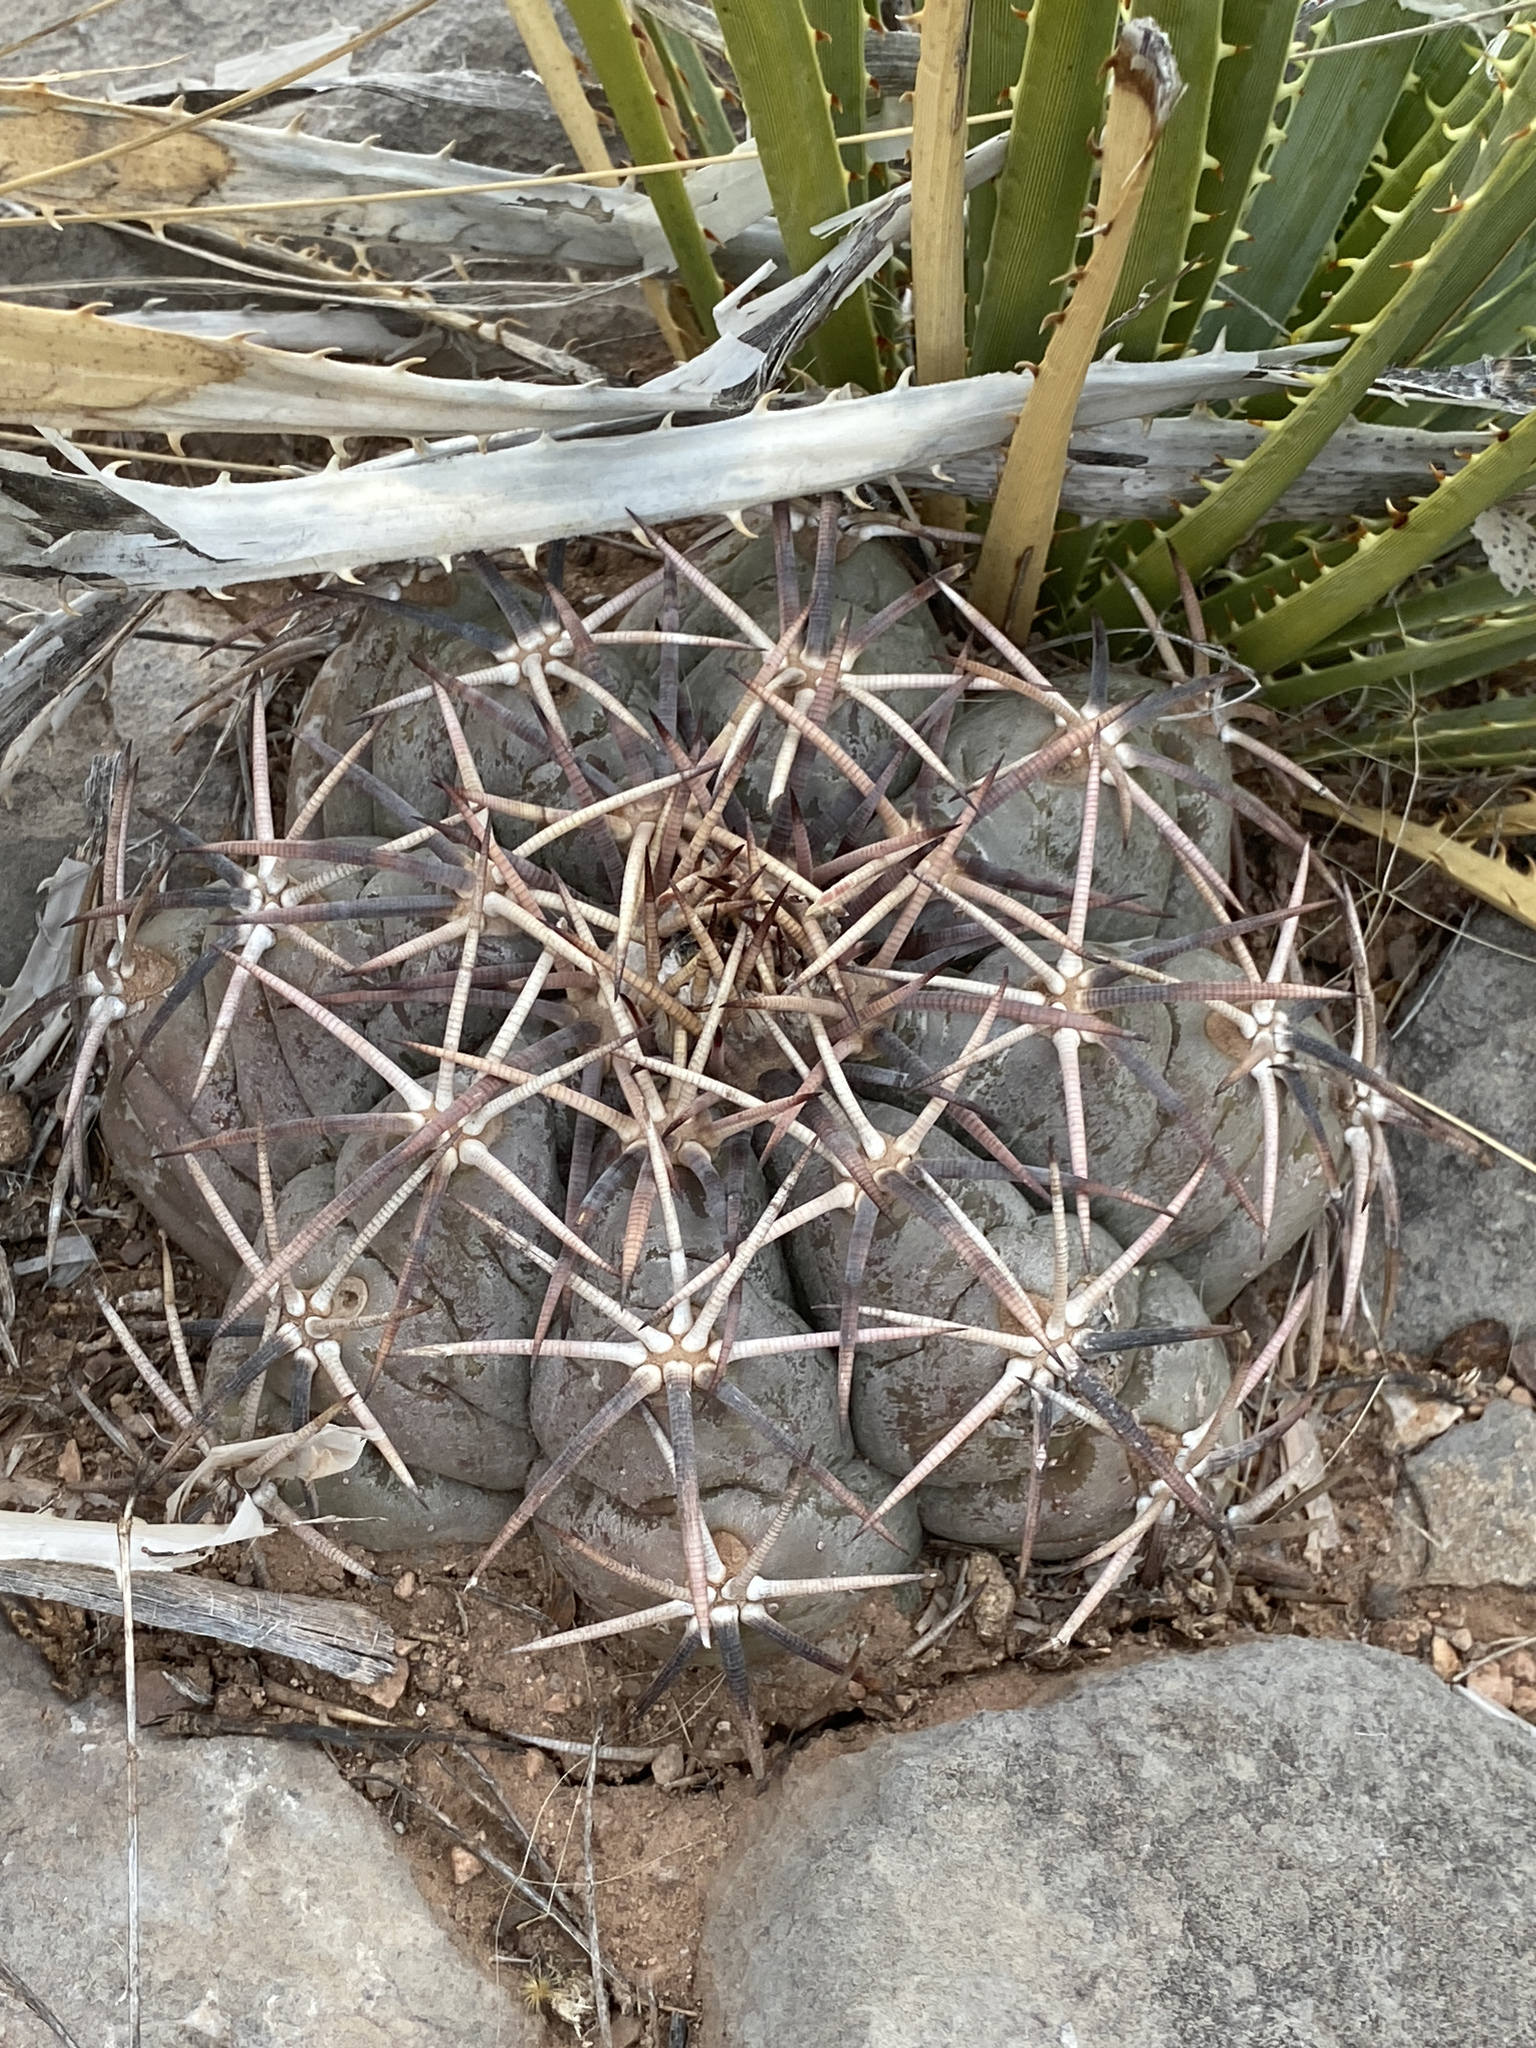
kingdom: Plantae
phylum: Tracheophyta
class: Magnoliopsida
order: Caryophyllales
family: Cactaceae
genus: Echinocactus
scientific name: Echinocactus horizonthalonius
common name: Devilshead
